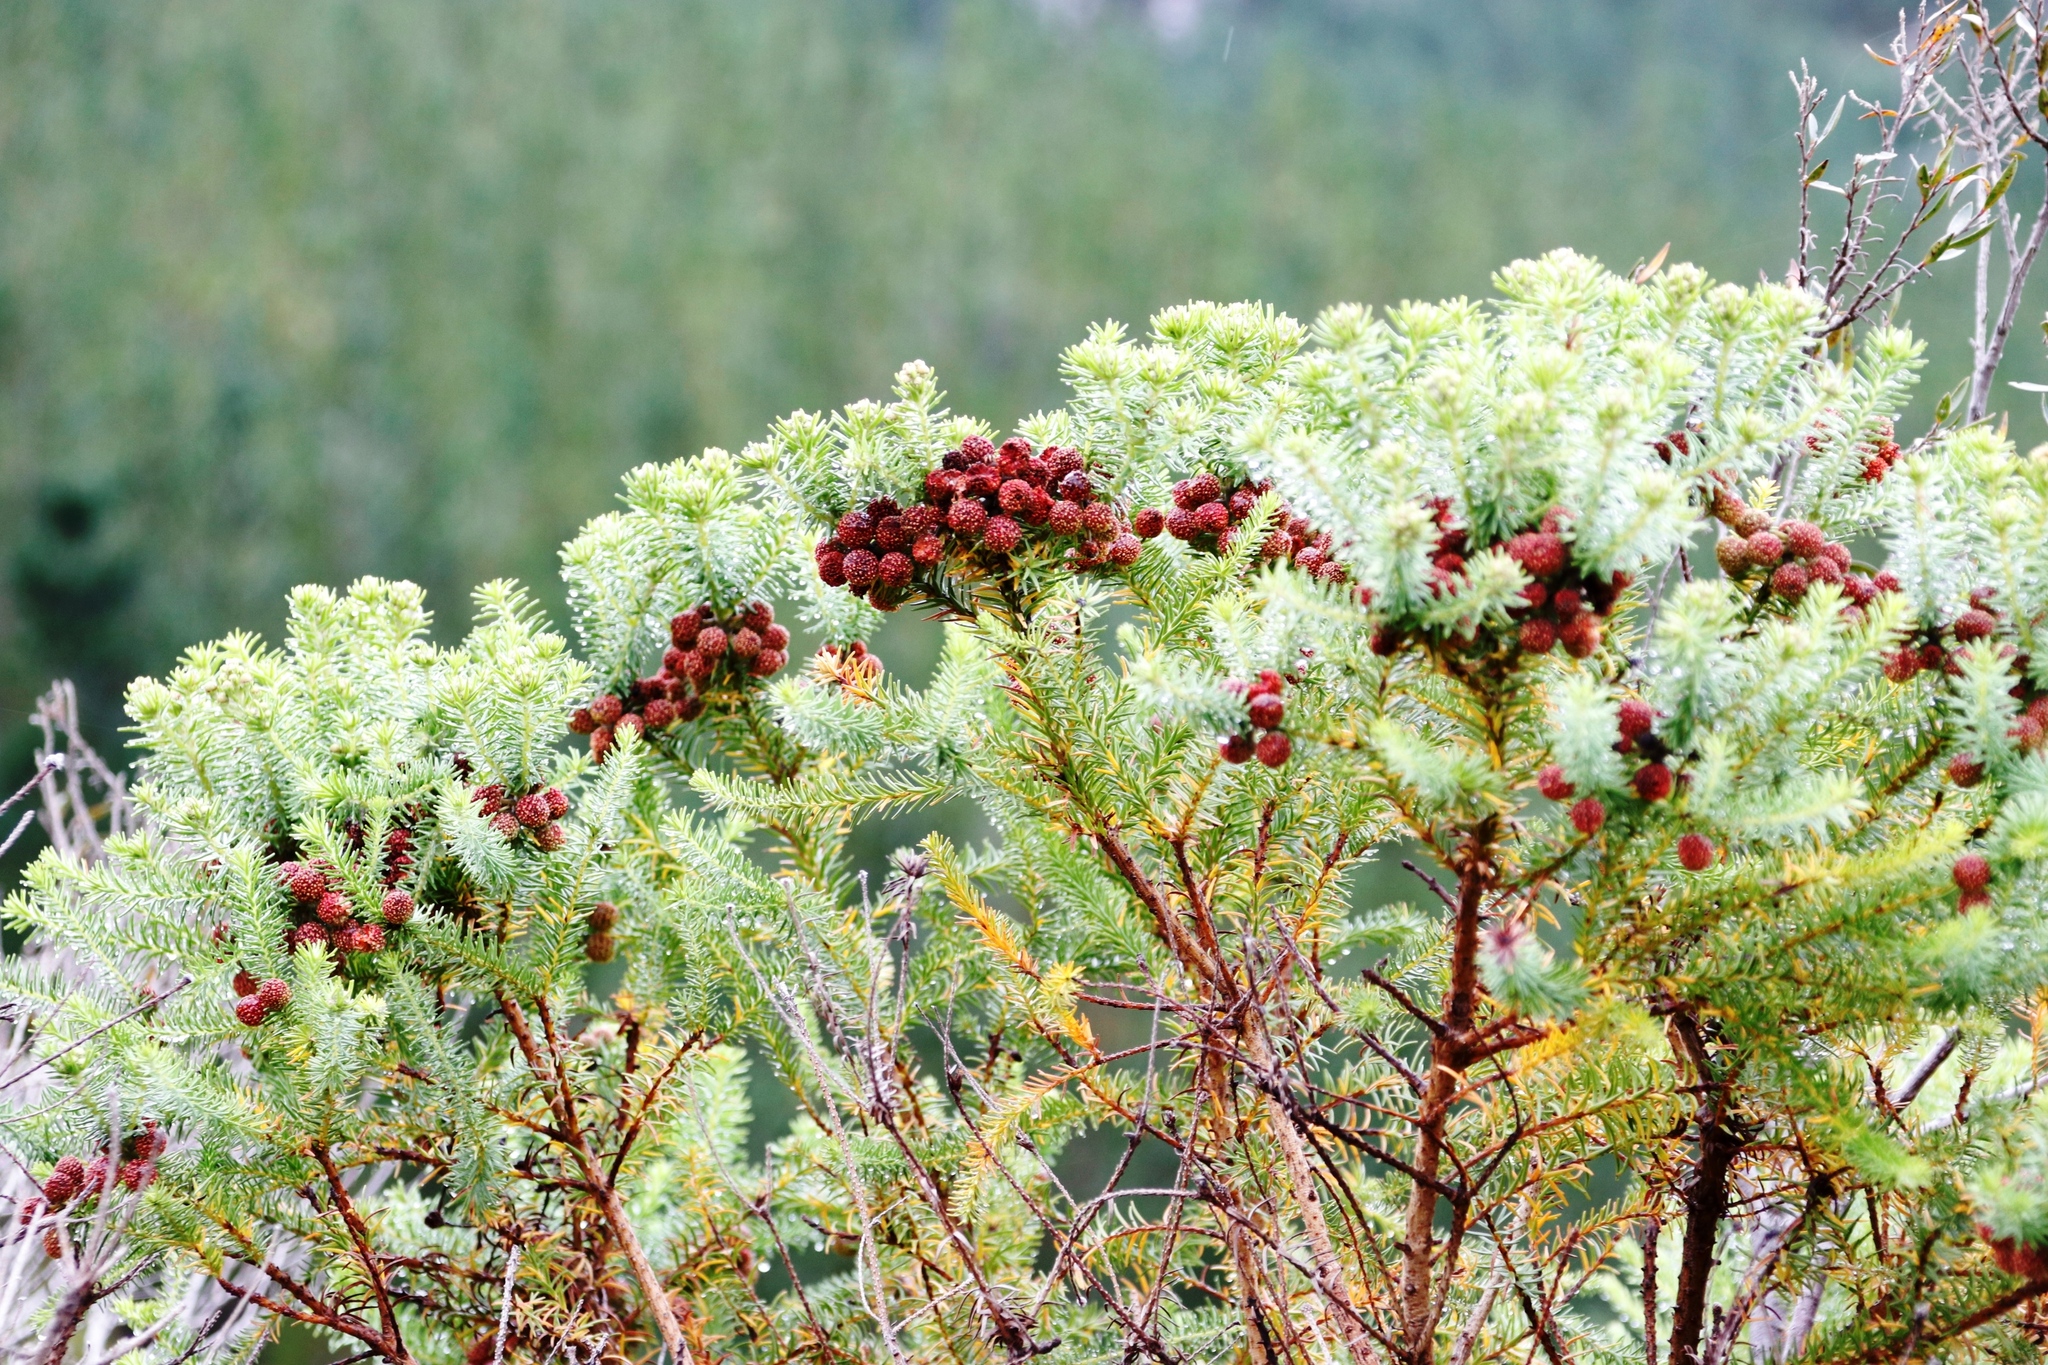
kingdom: Plantae
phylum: Tracheophyta
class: Magnoliopsida
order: Bruniales
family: Bruniaceae
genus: Berzelia
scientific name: Berzelia squarrosa
